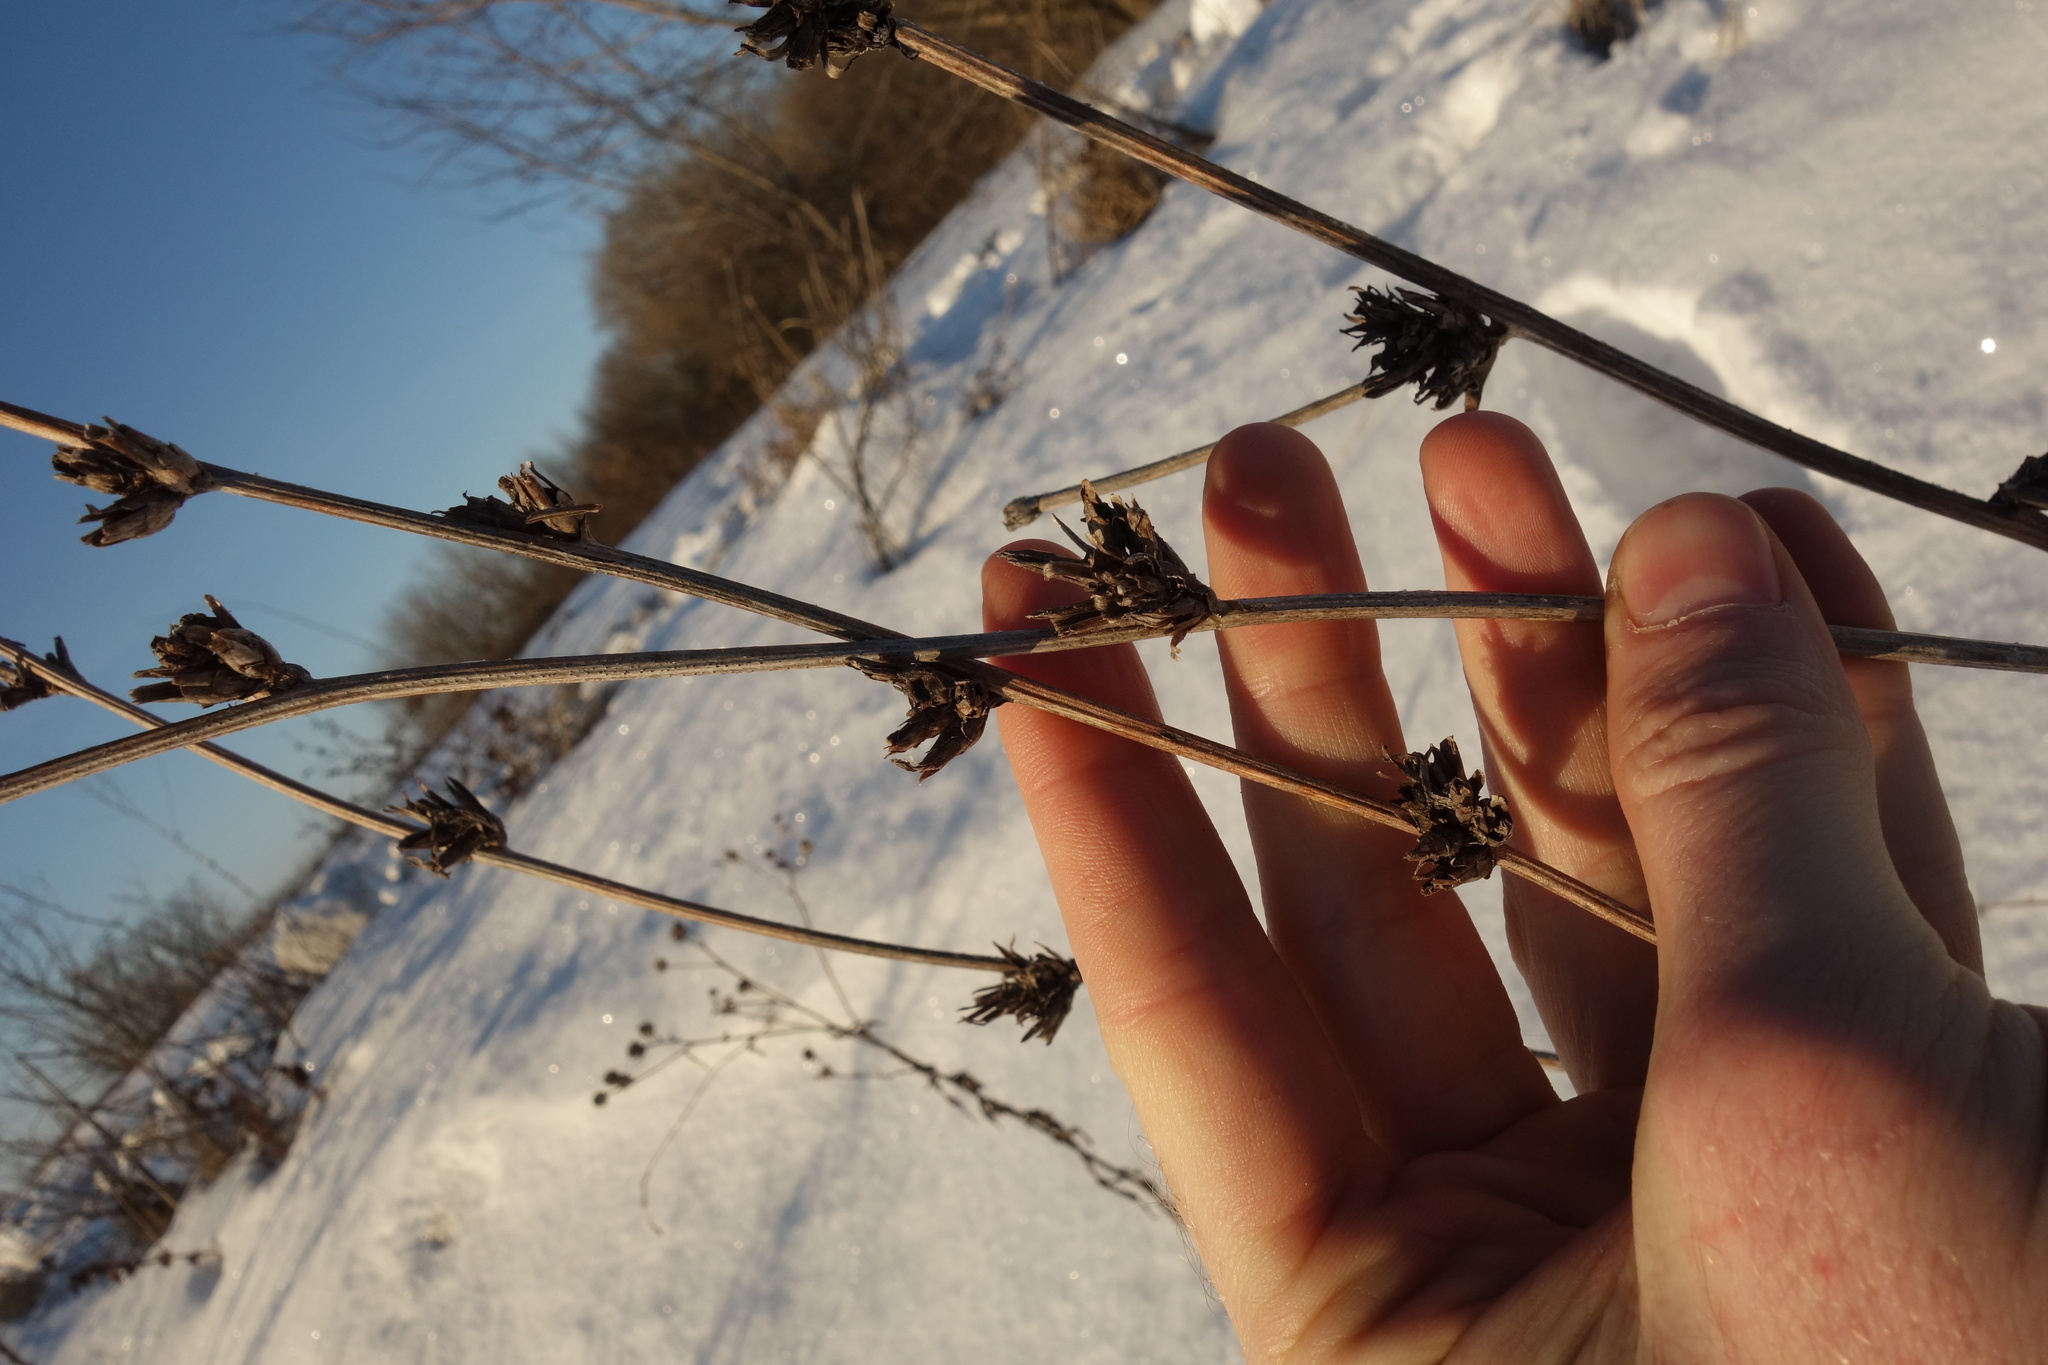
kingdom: Plantae
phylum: Tracheophyta
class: Magnoliopsida
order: Asterales
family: Asteraceae
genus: Cichorium
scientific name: Cichorium intybus
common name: Chicory
